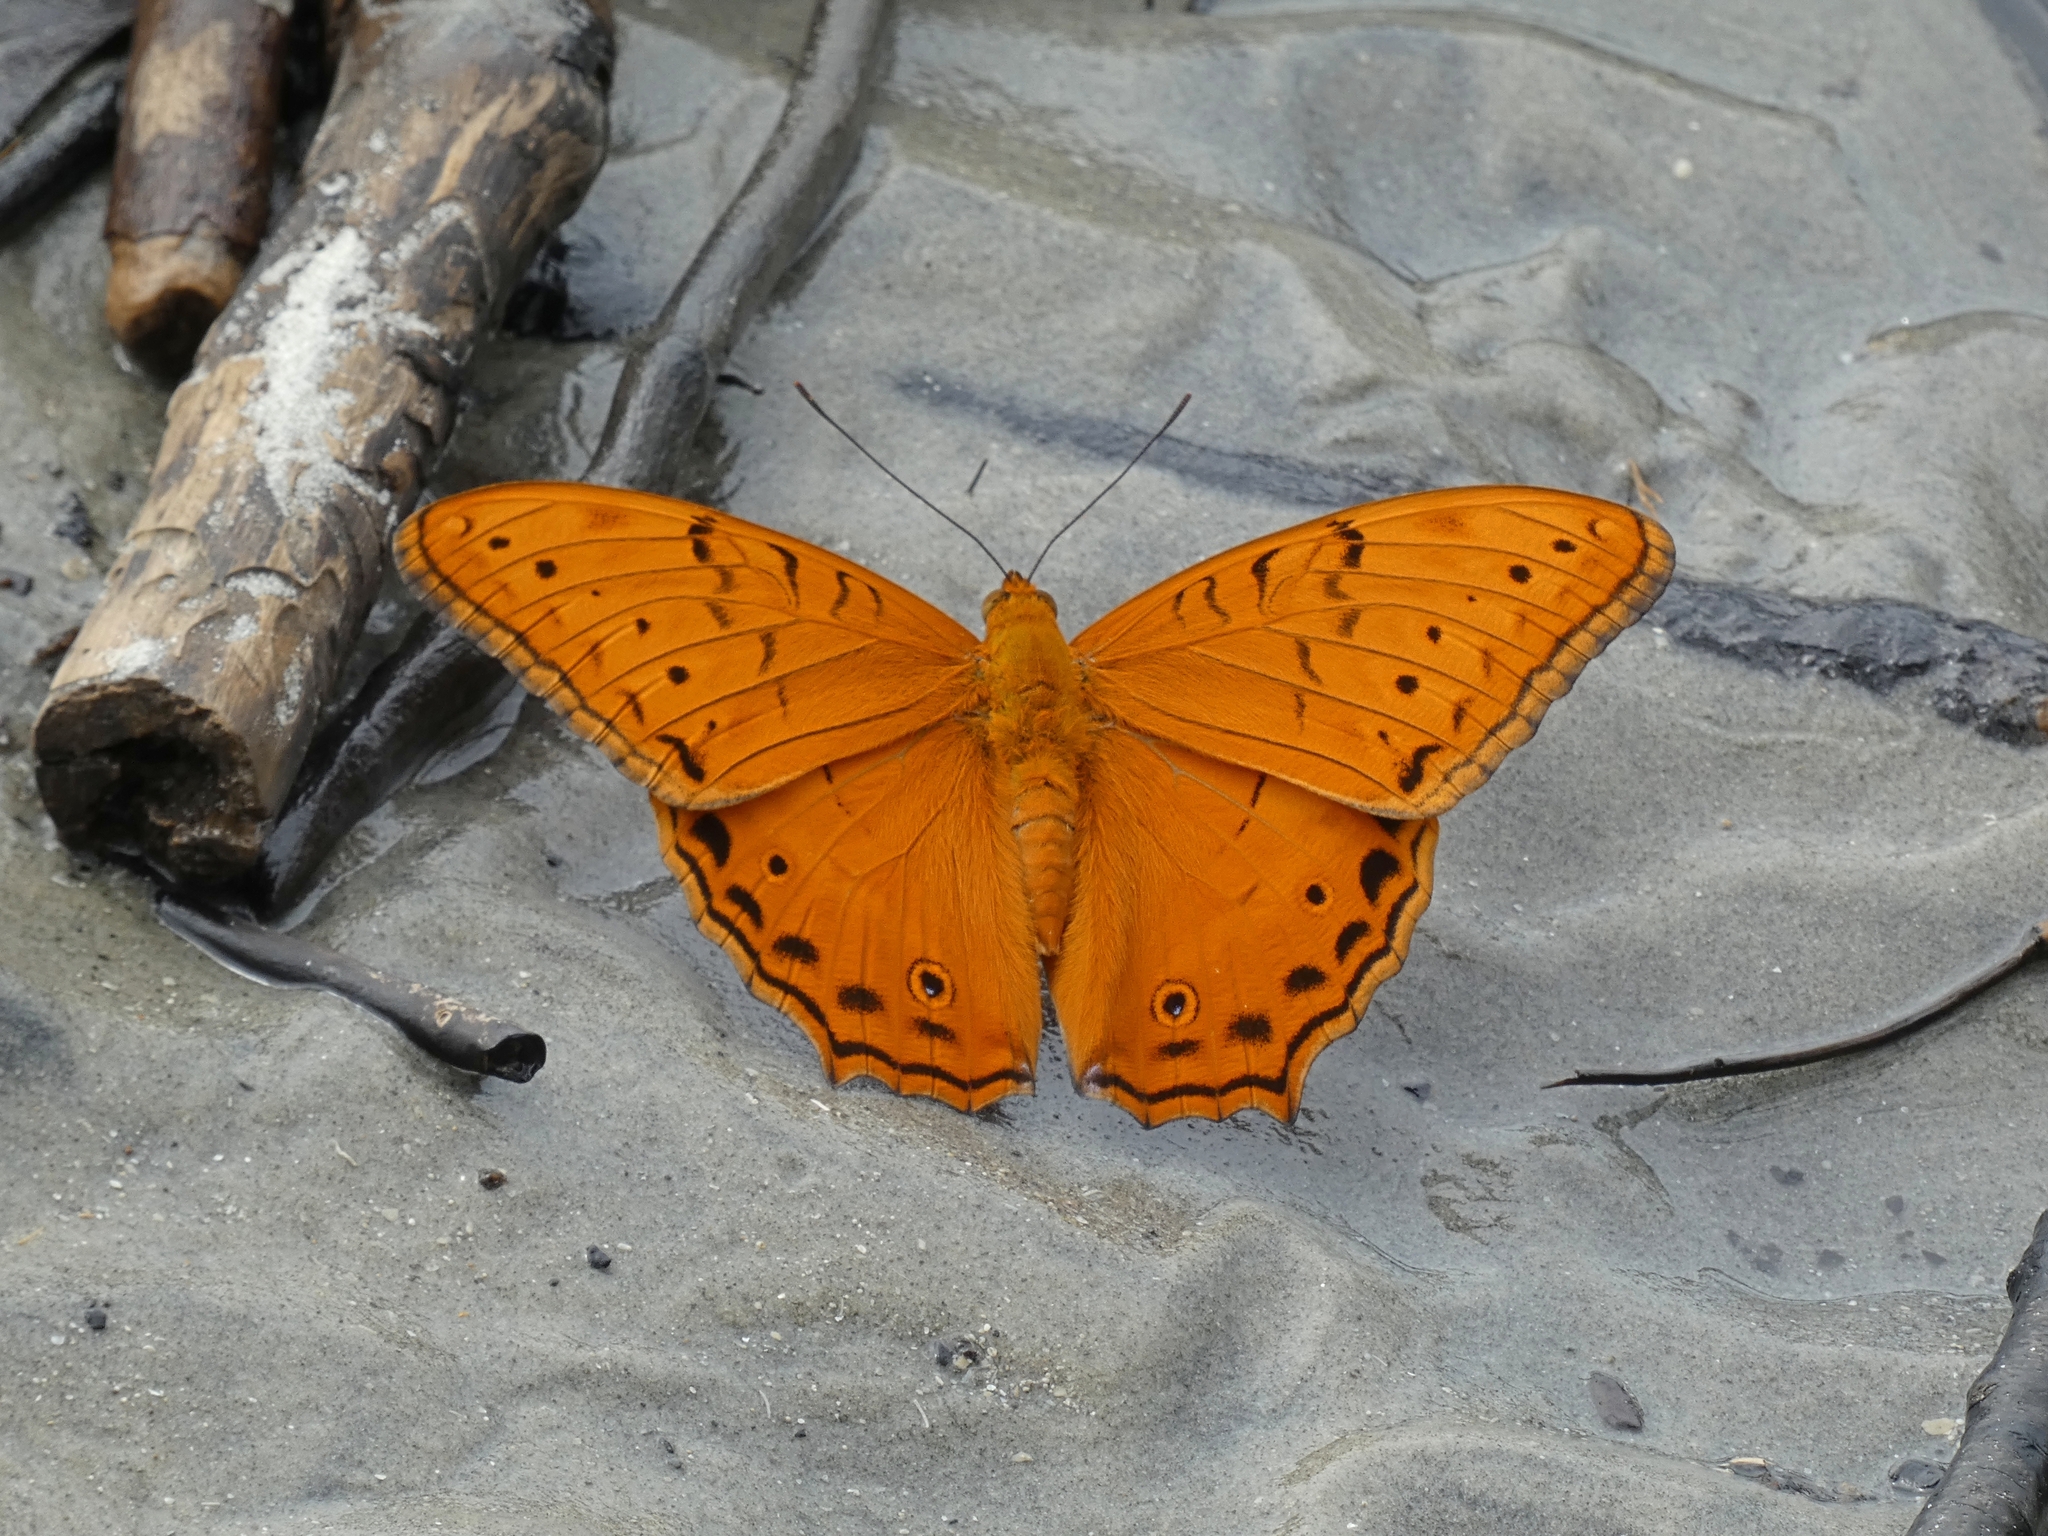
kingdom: Animalia
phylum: Arthropoda
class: Insecta
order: Lepidoptera
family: Nymphalidae
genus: Vindula
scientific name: Vindula arsinoe
